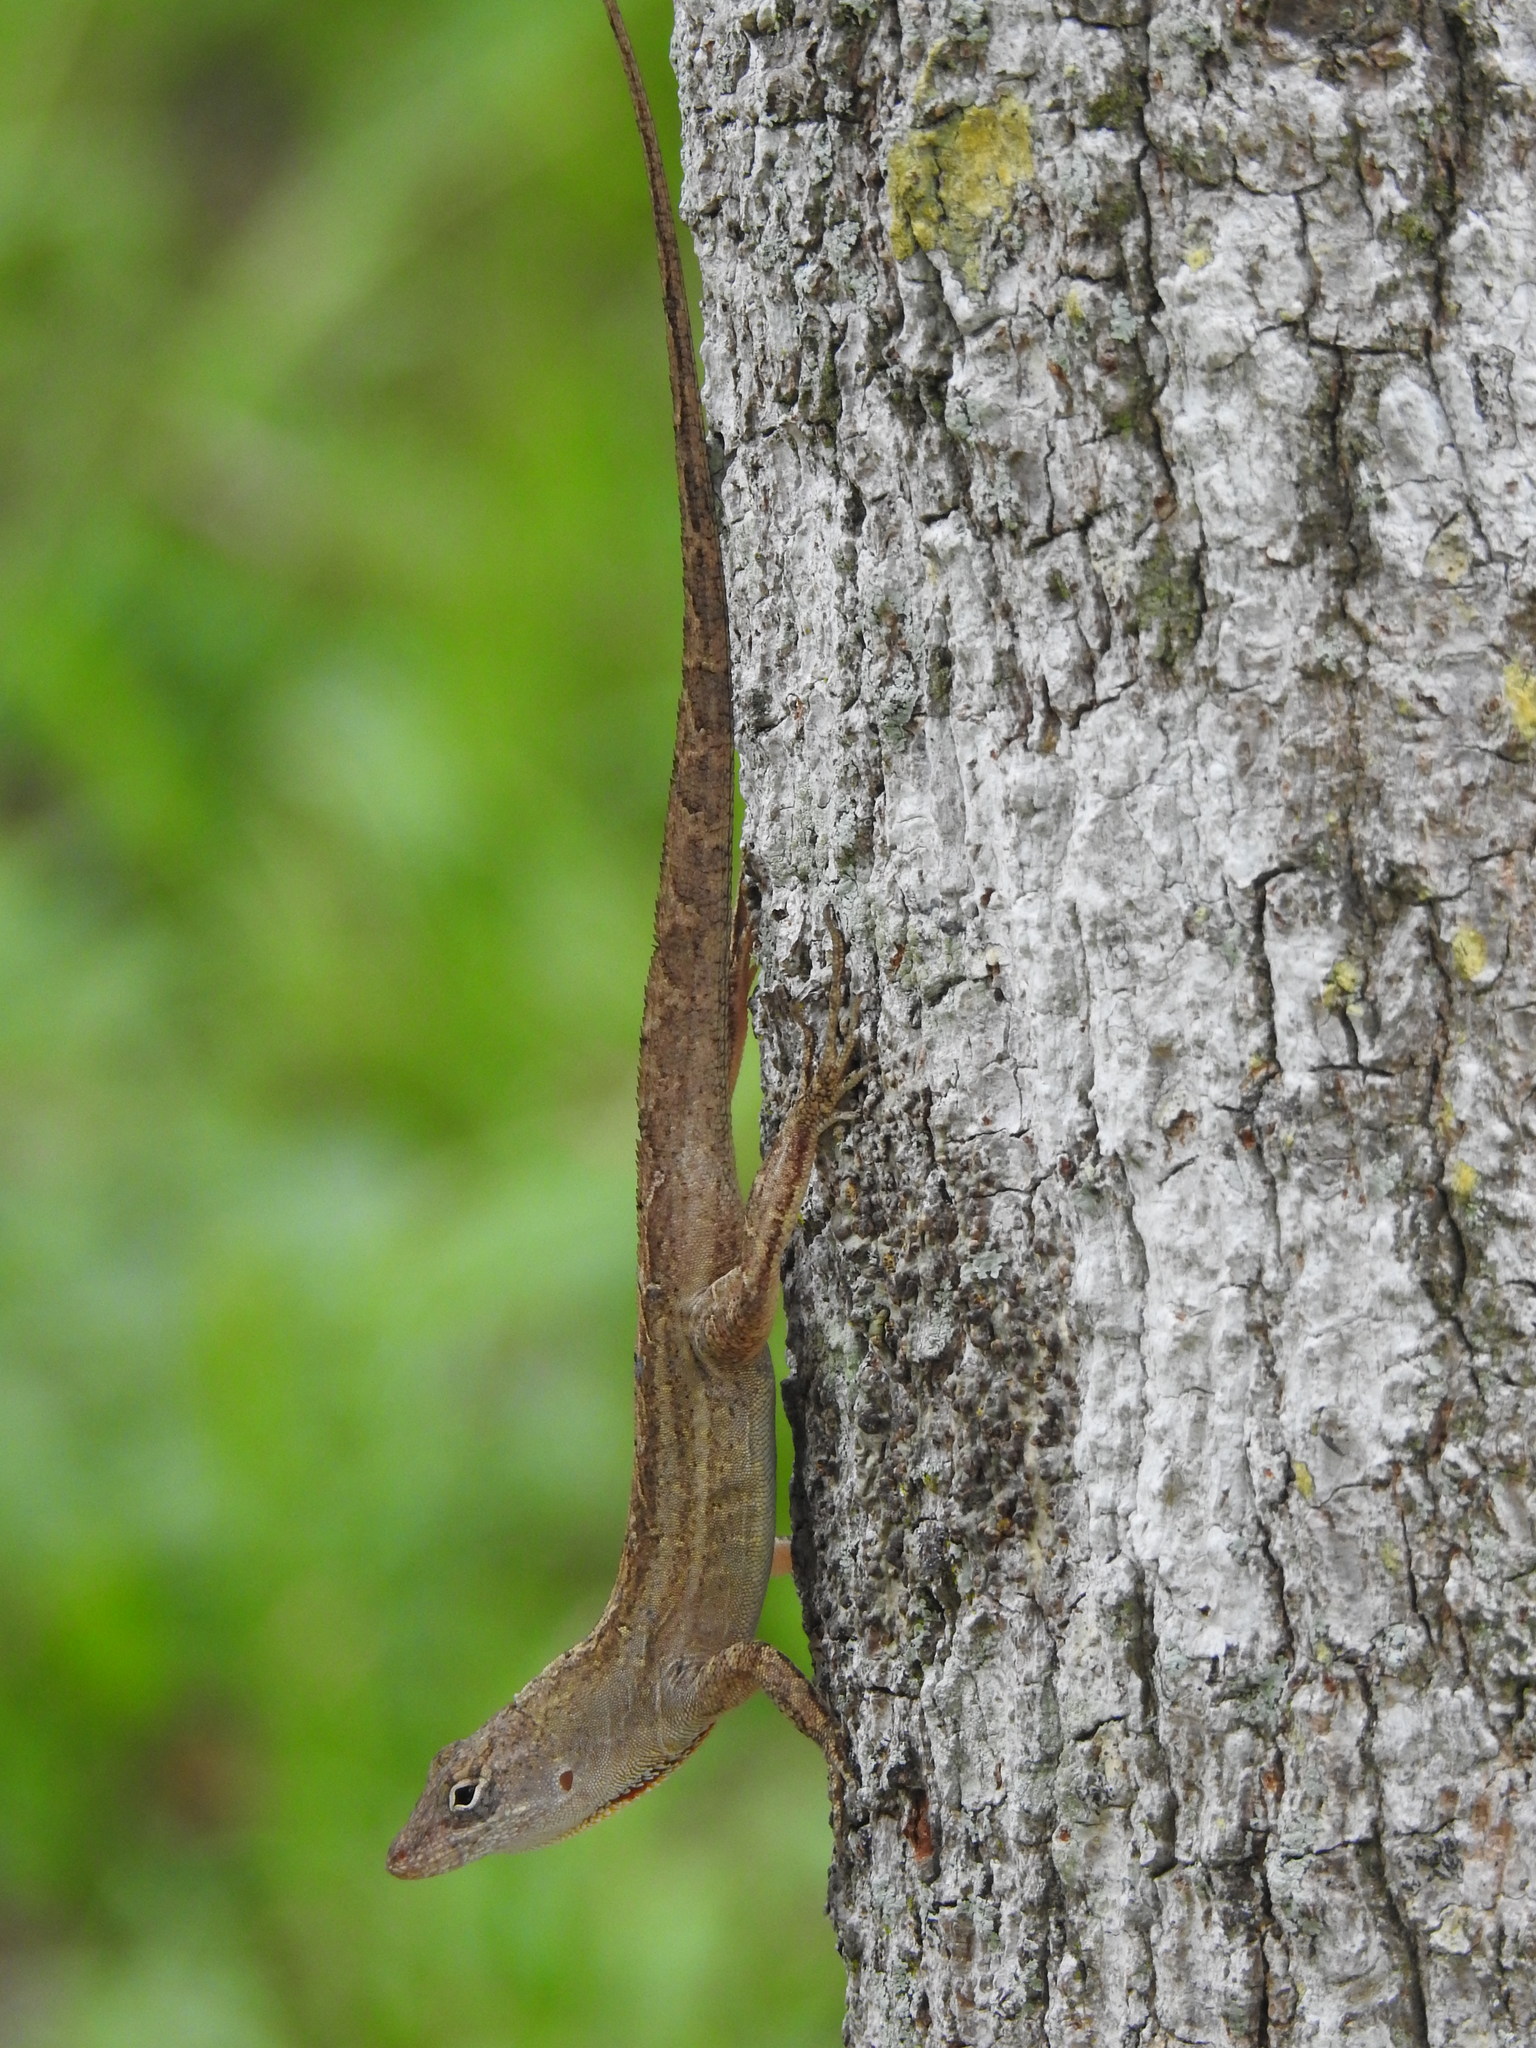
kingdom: Animalia
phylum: Chordata
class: Squamata
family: Dactyloidae
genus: Anolis
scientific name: Anolis sagrei
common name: Brown anole
